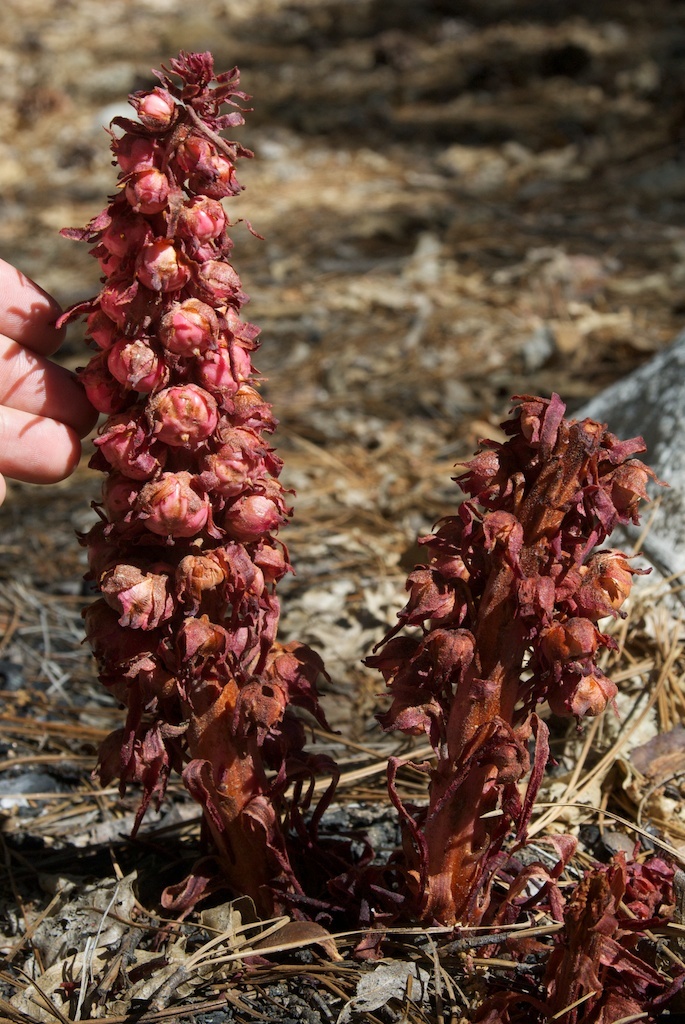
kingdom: Plantae
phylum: Tracheophyta
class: Magnoliopsida
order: Ericales
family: Ericaceae
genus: Sarcodes
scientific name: Sarcodes sanguinea
